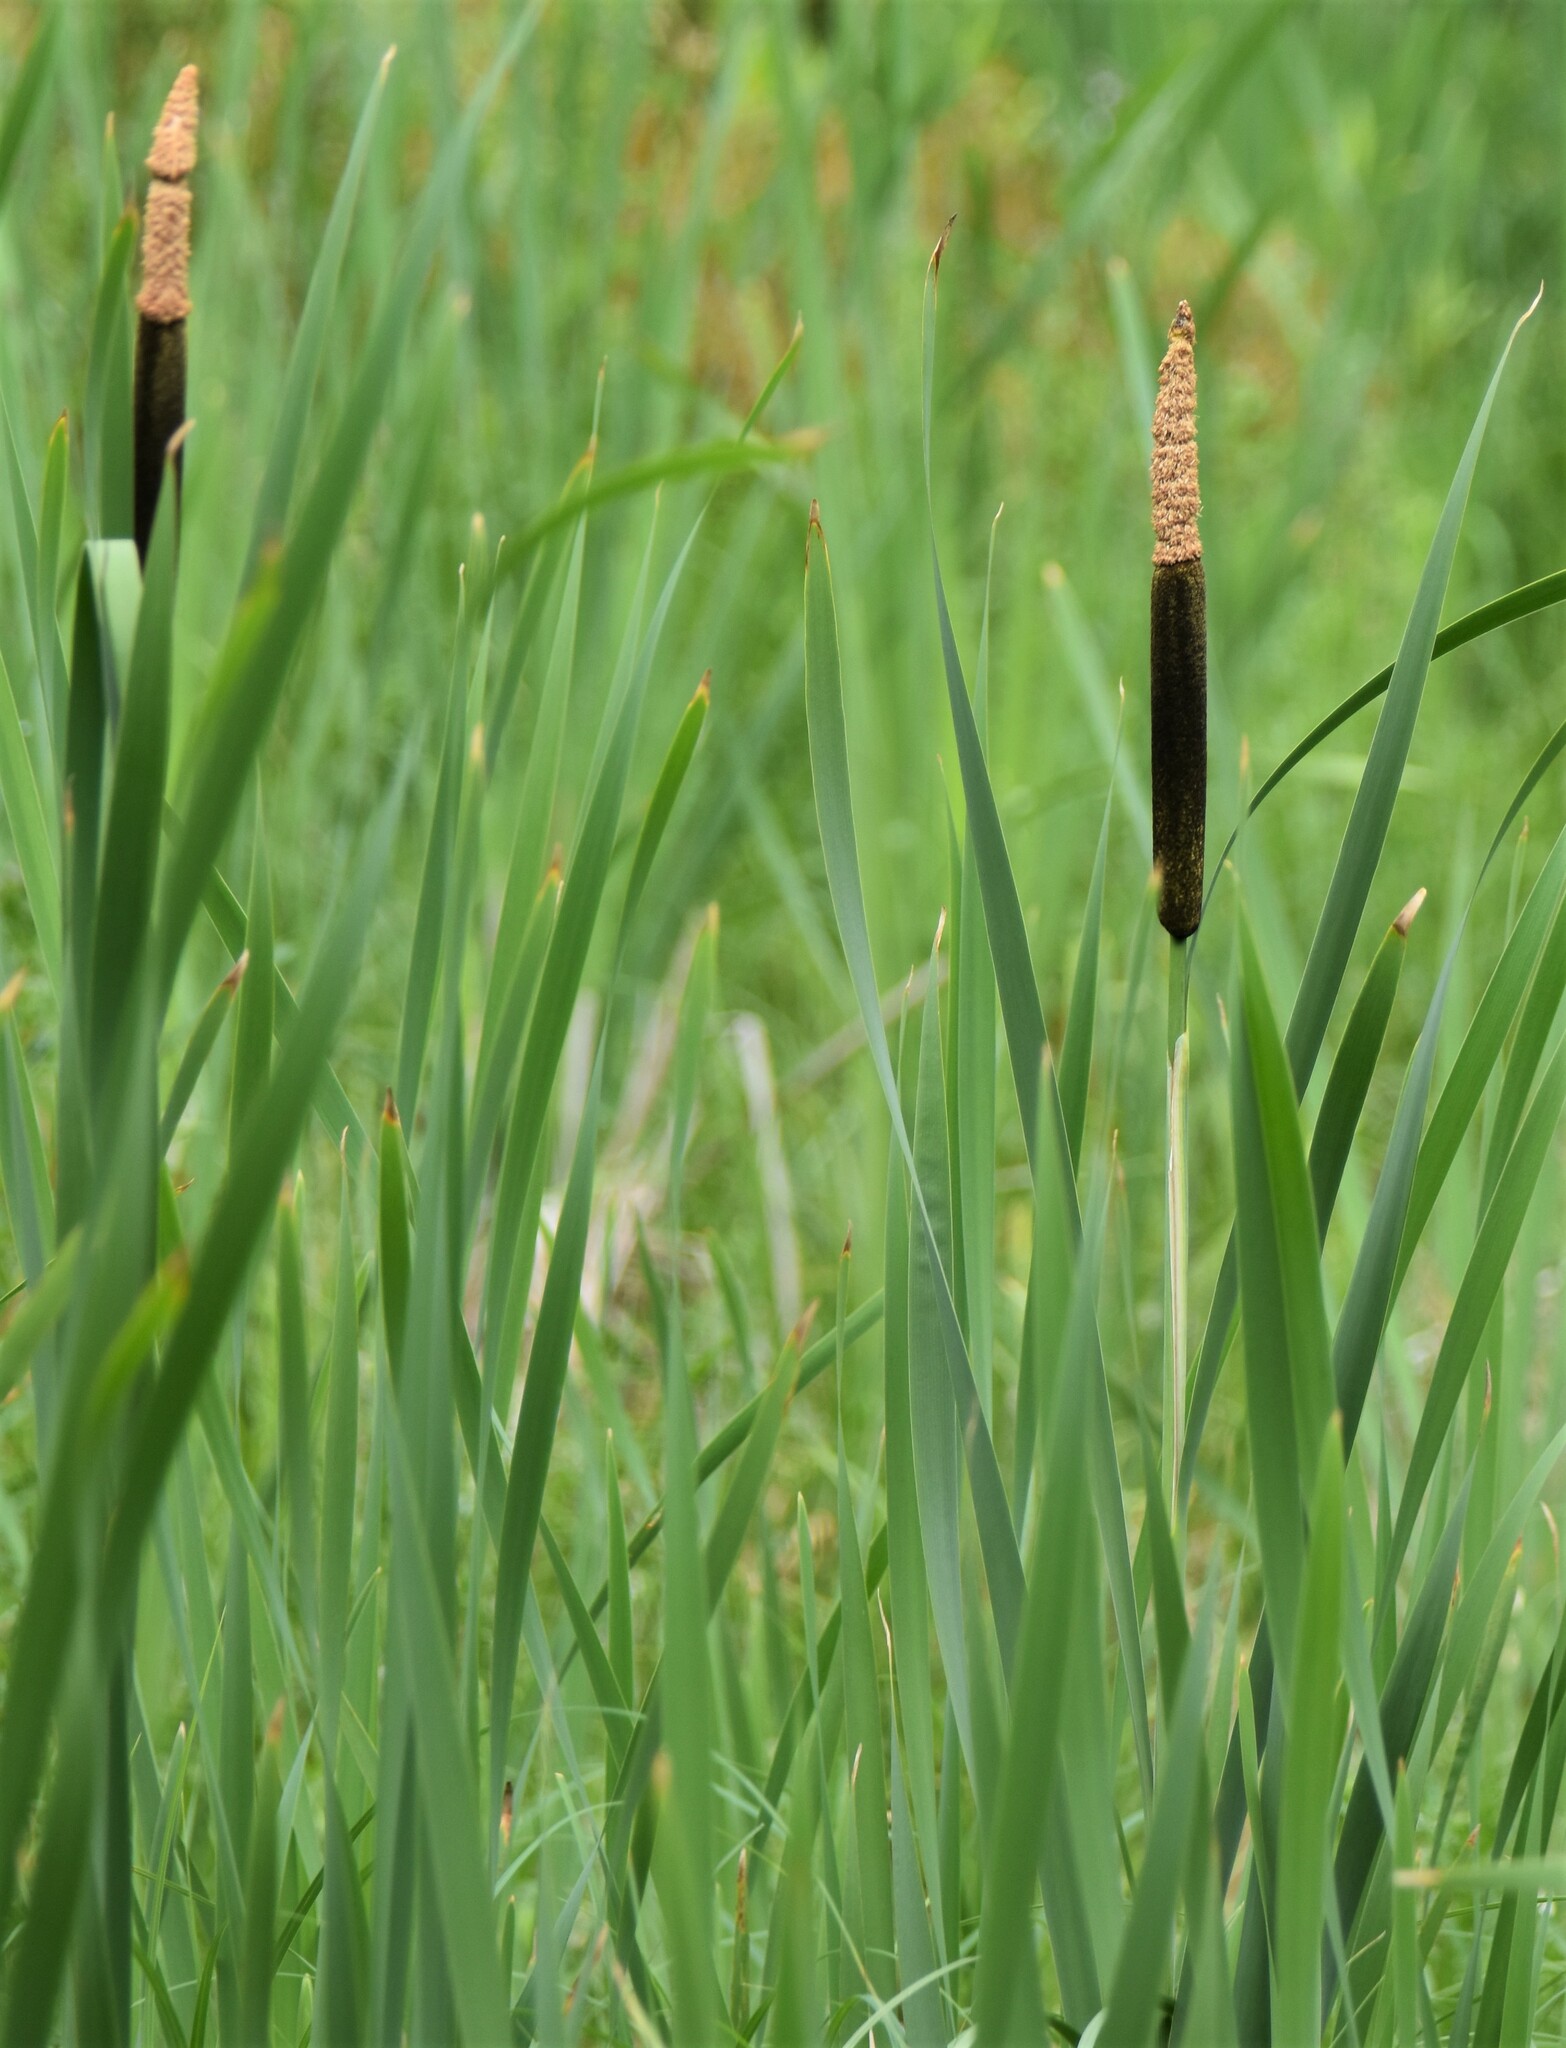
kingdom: Plantae
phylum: Tracheophyta
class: Liliopsida
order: Poales
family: Typhaceae
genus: Typha
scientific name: Typha latifolia
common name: Broadleaf cattail
